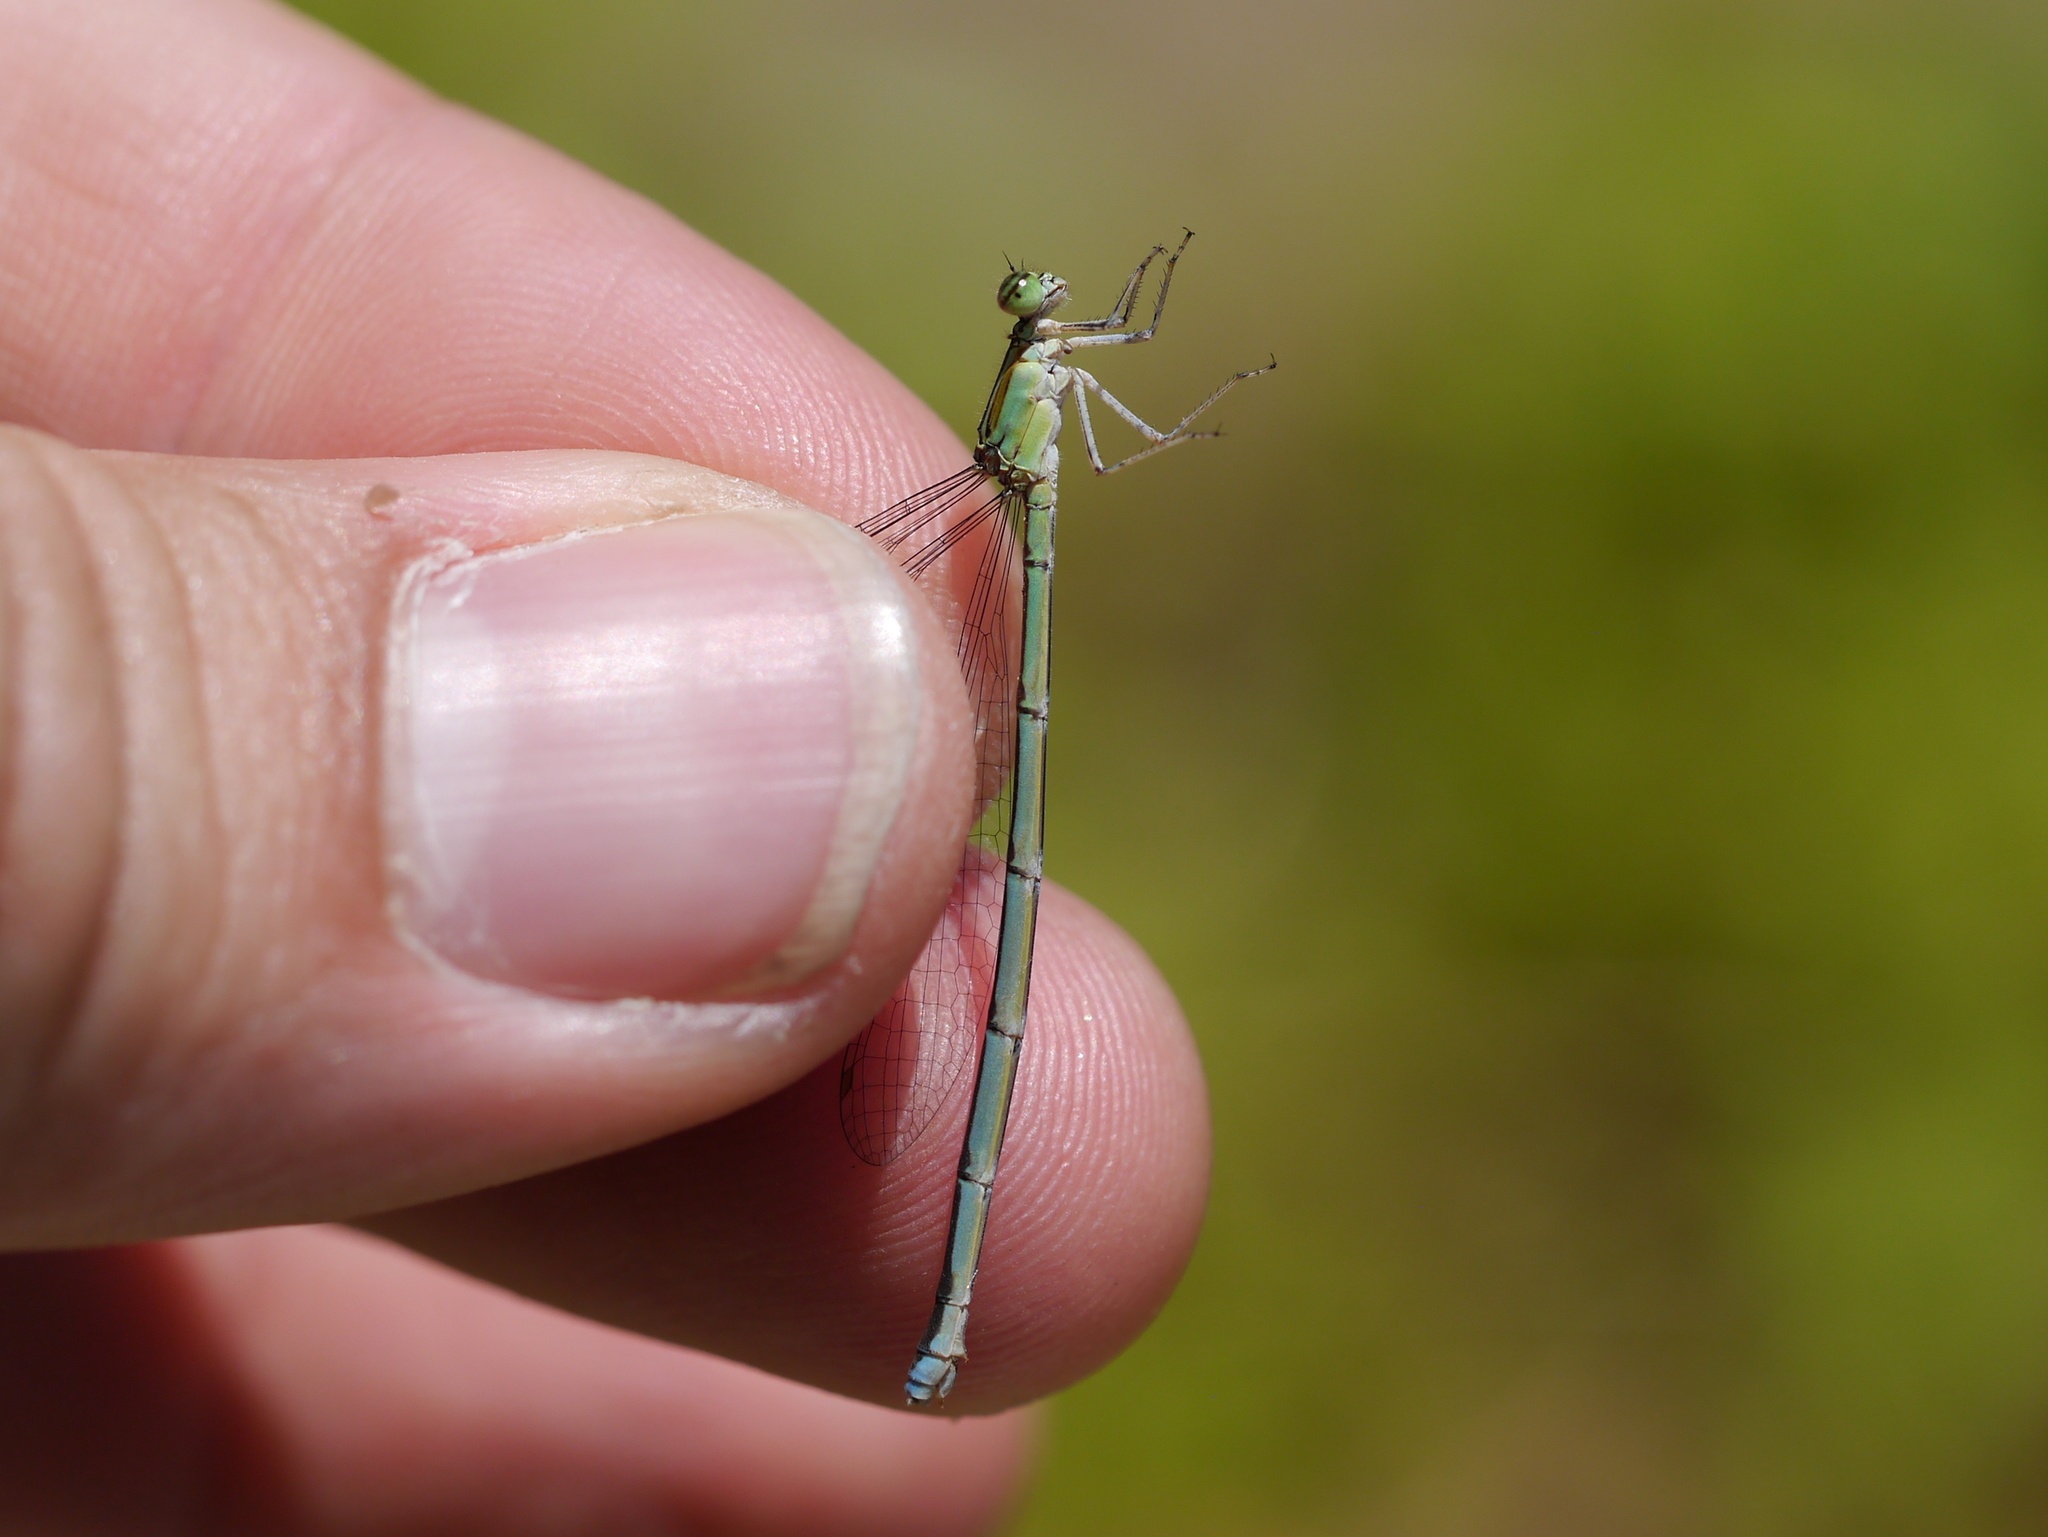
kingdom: Animalia
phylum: Arthropoda
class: Insecta
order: Odonata
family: Coenagrionidae
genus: Enallagma
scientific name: Enallagma exsulans
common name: Stream bluet
